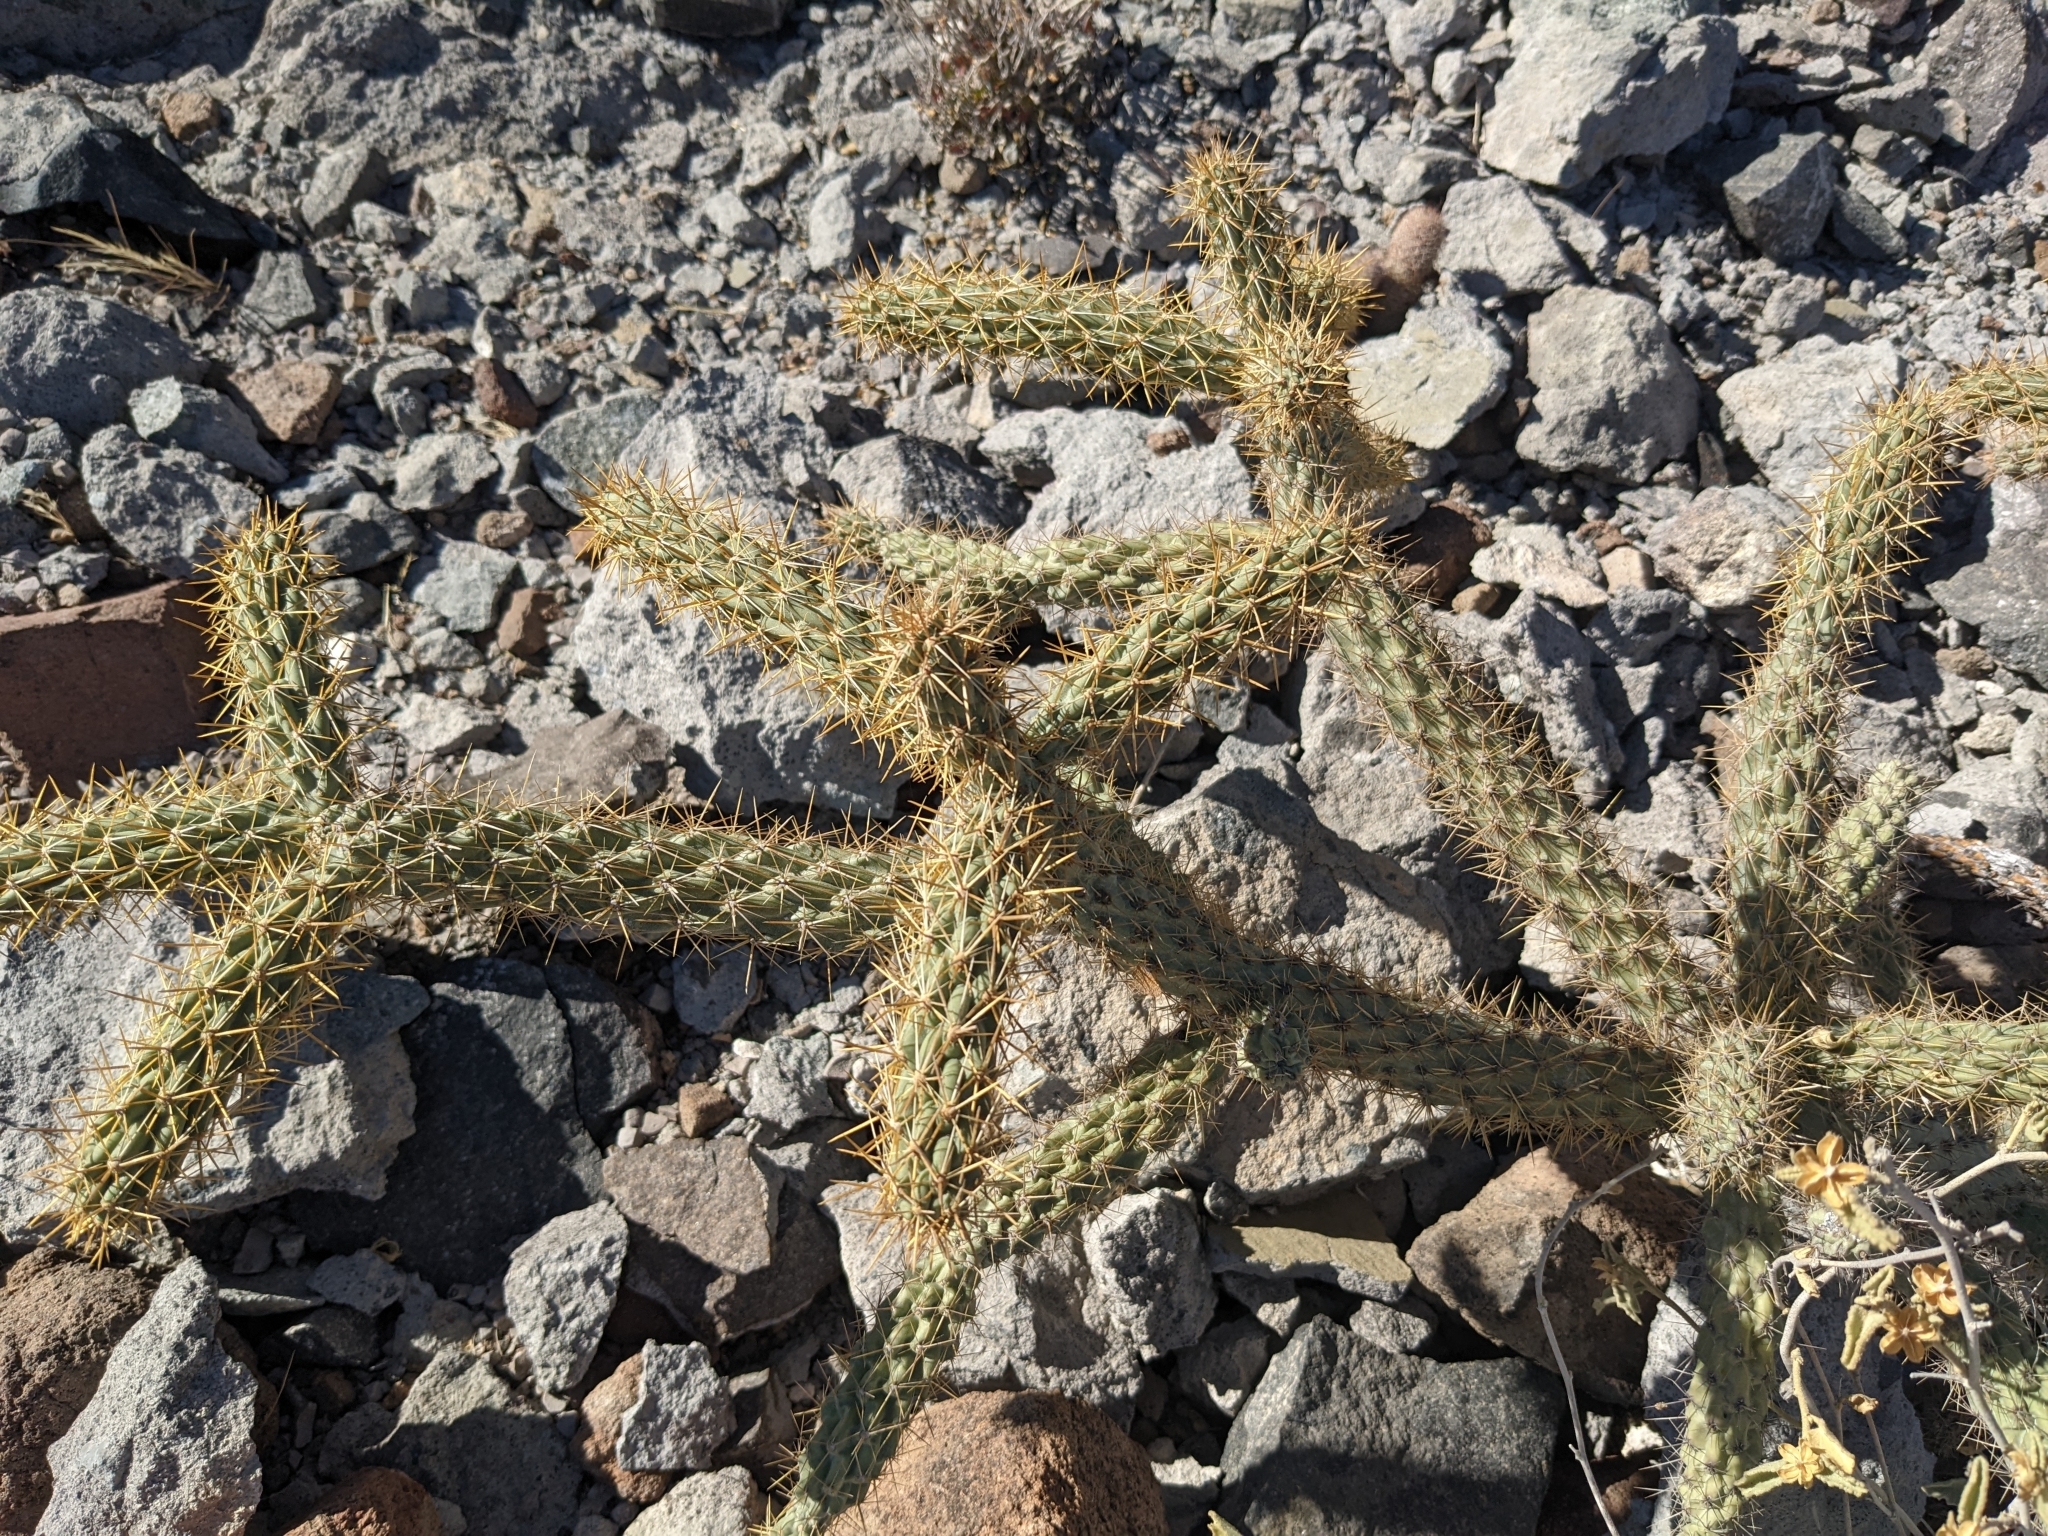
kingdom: Plantae
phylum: Tracheophyta
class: Magnoliopsida
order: Caryophyllales
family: Cactaceae
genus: Cylindropuntia
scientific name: Cylindropuntia alcahes
